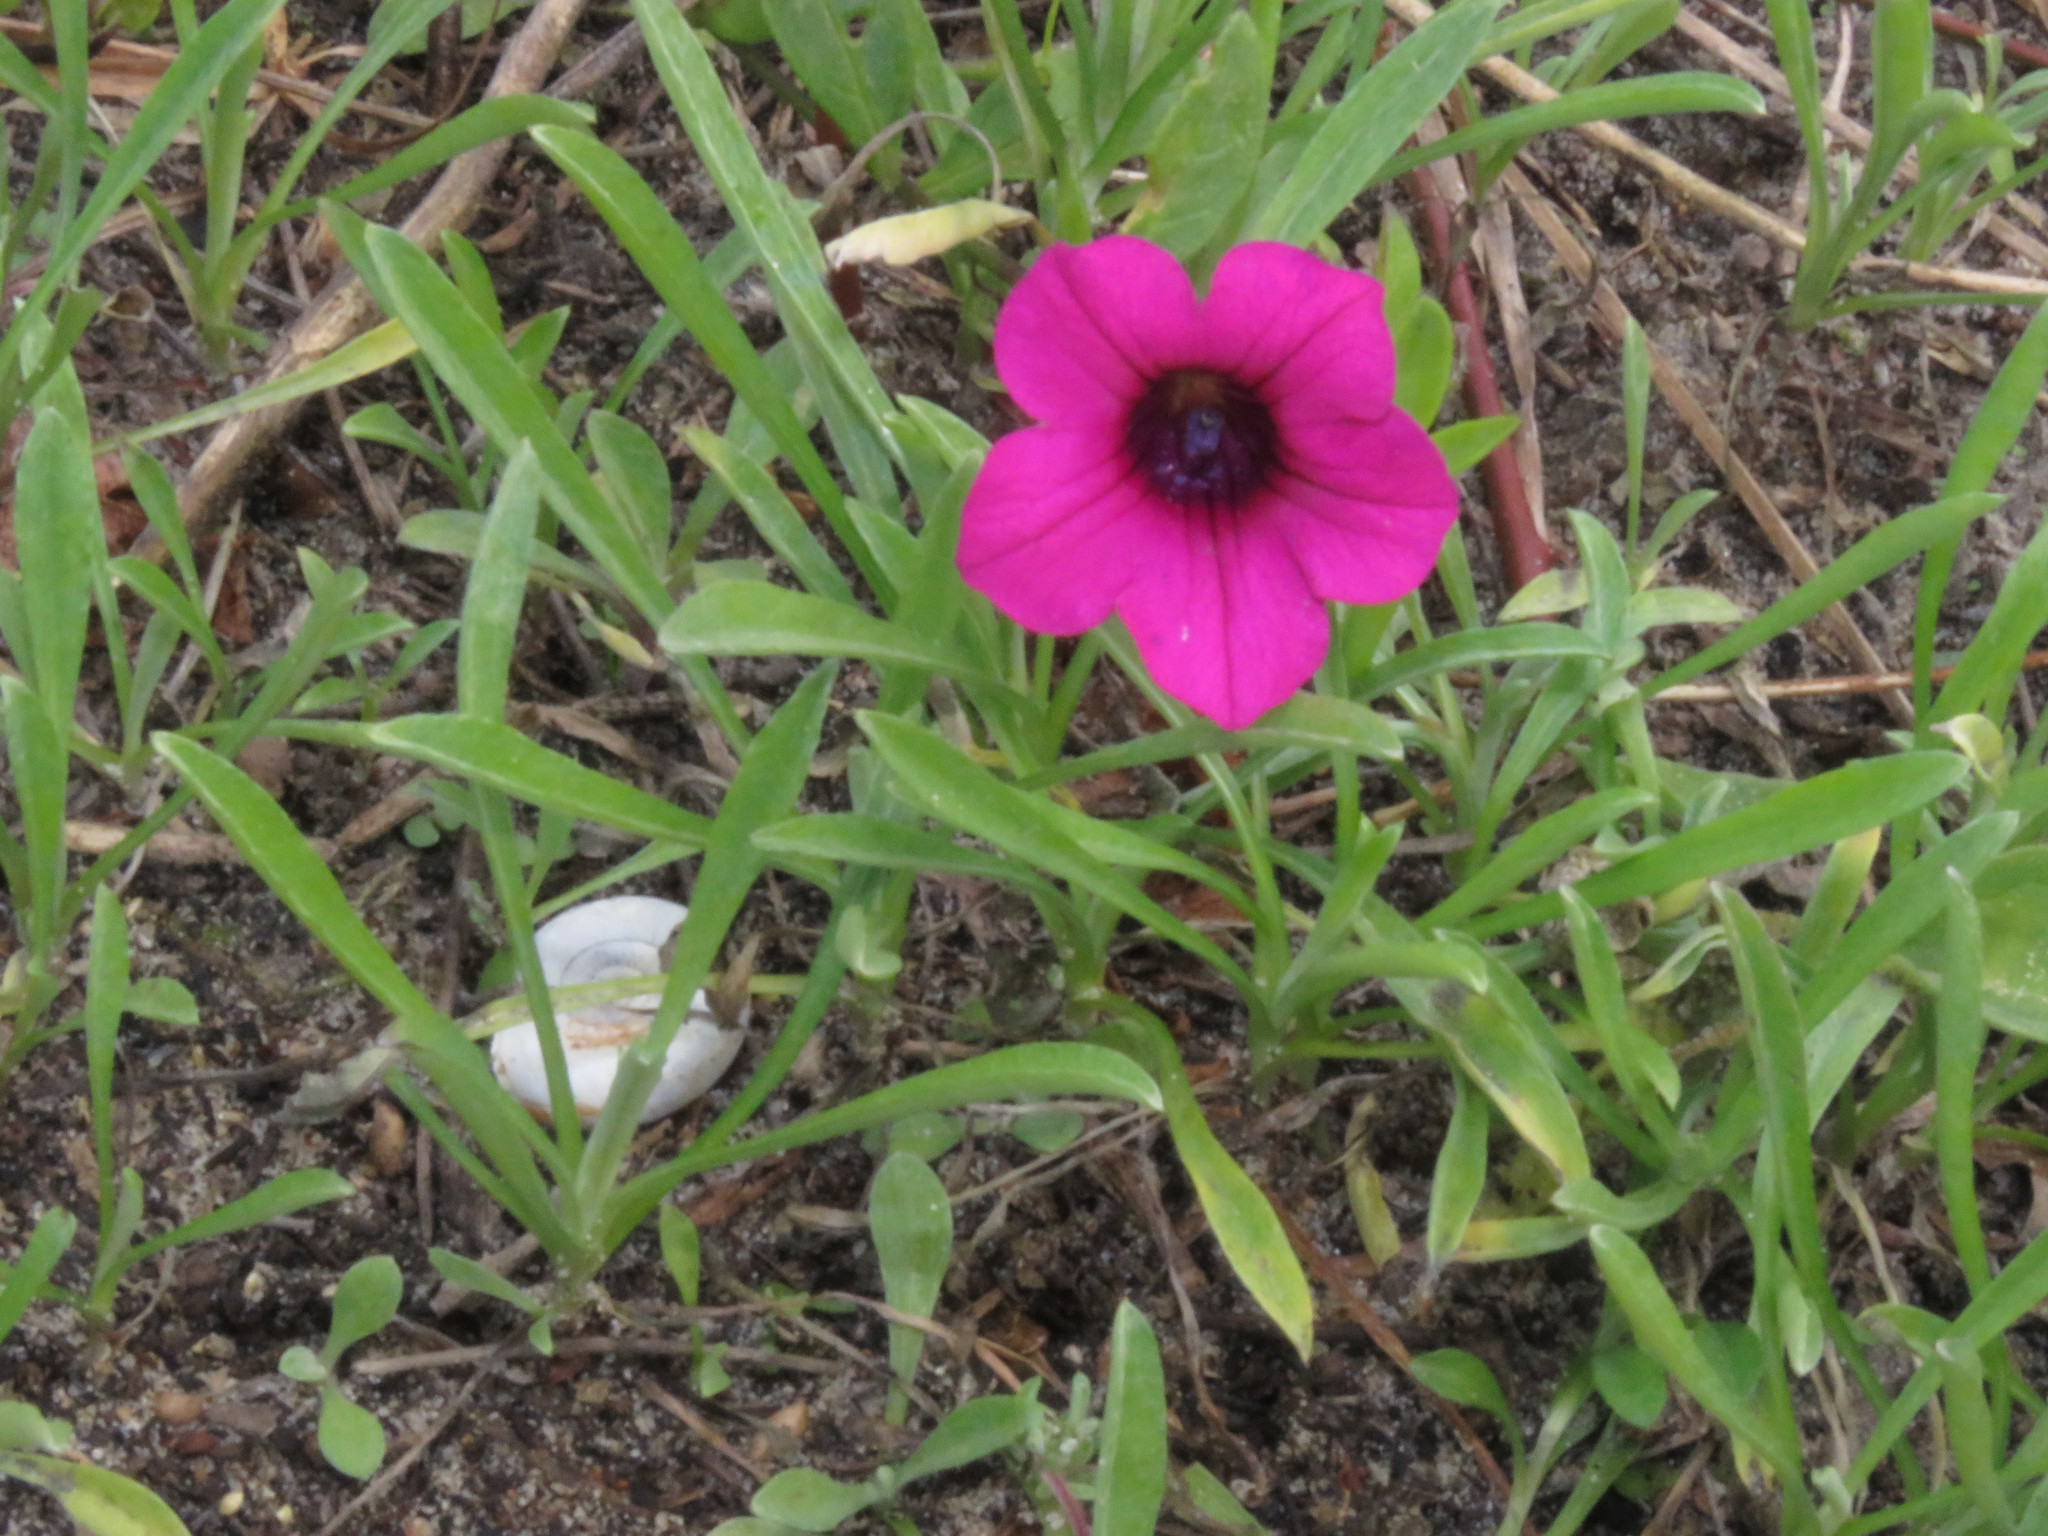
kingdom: Plantae
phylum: Tracheophyta
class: Magnoliopsida
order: Solanales
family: Solanaceae
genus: Petunia
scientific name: Petunia integrifolia
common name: Violet-flower petunia
